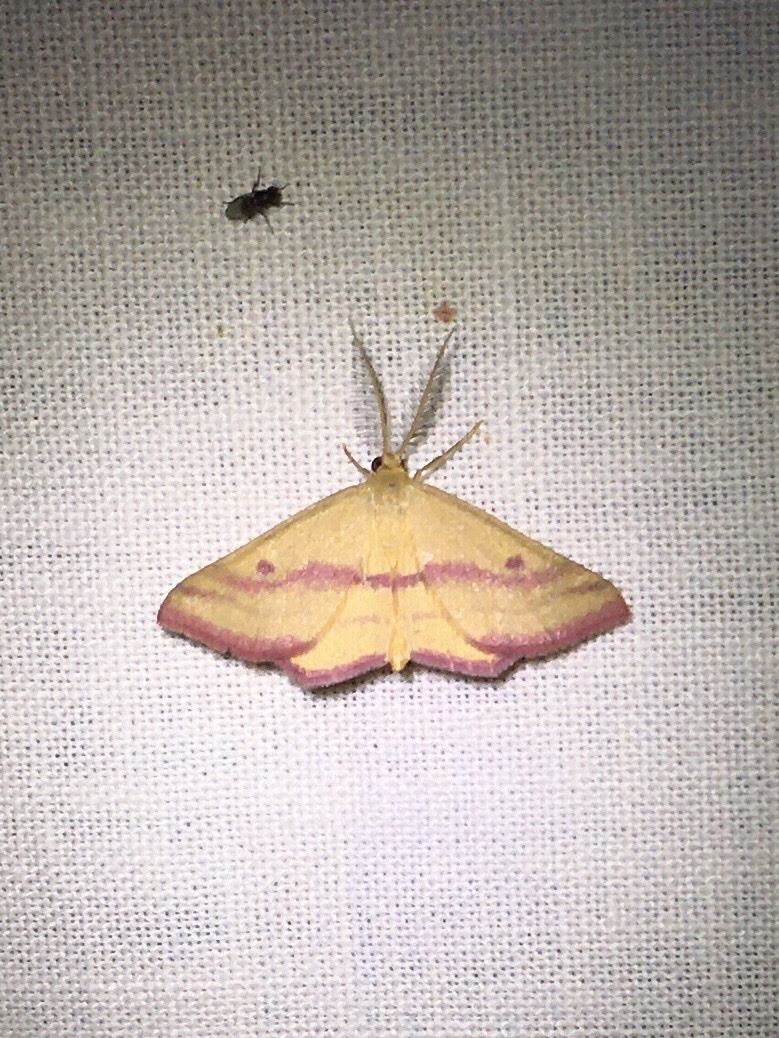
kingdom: Animalia
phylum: Arthropoda
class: Insecta
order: Lepidoptera
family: Geometridae
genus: Haematopis
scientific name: Haematopis grataria
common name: Chickweed geometer
